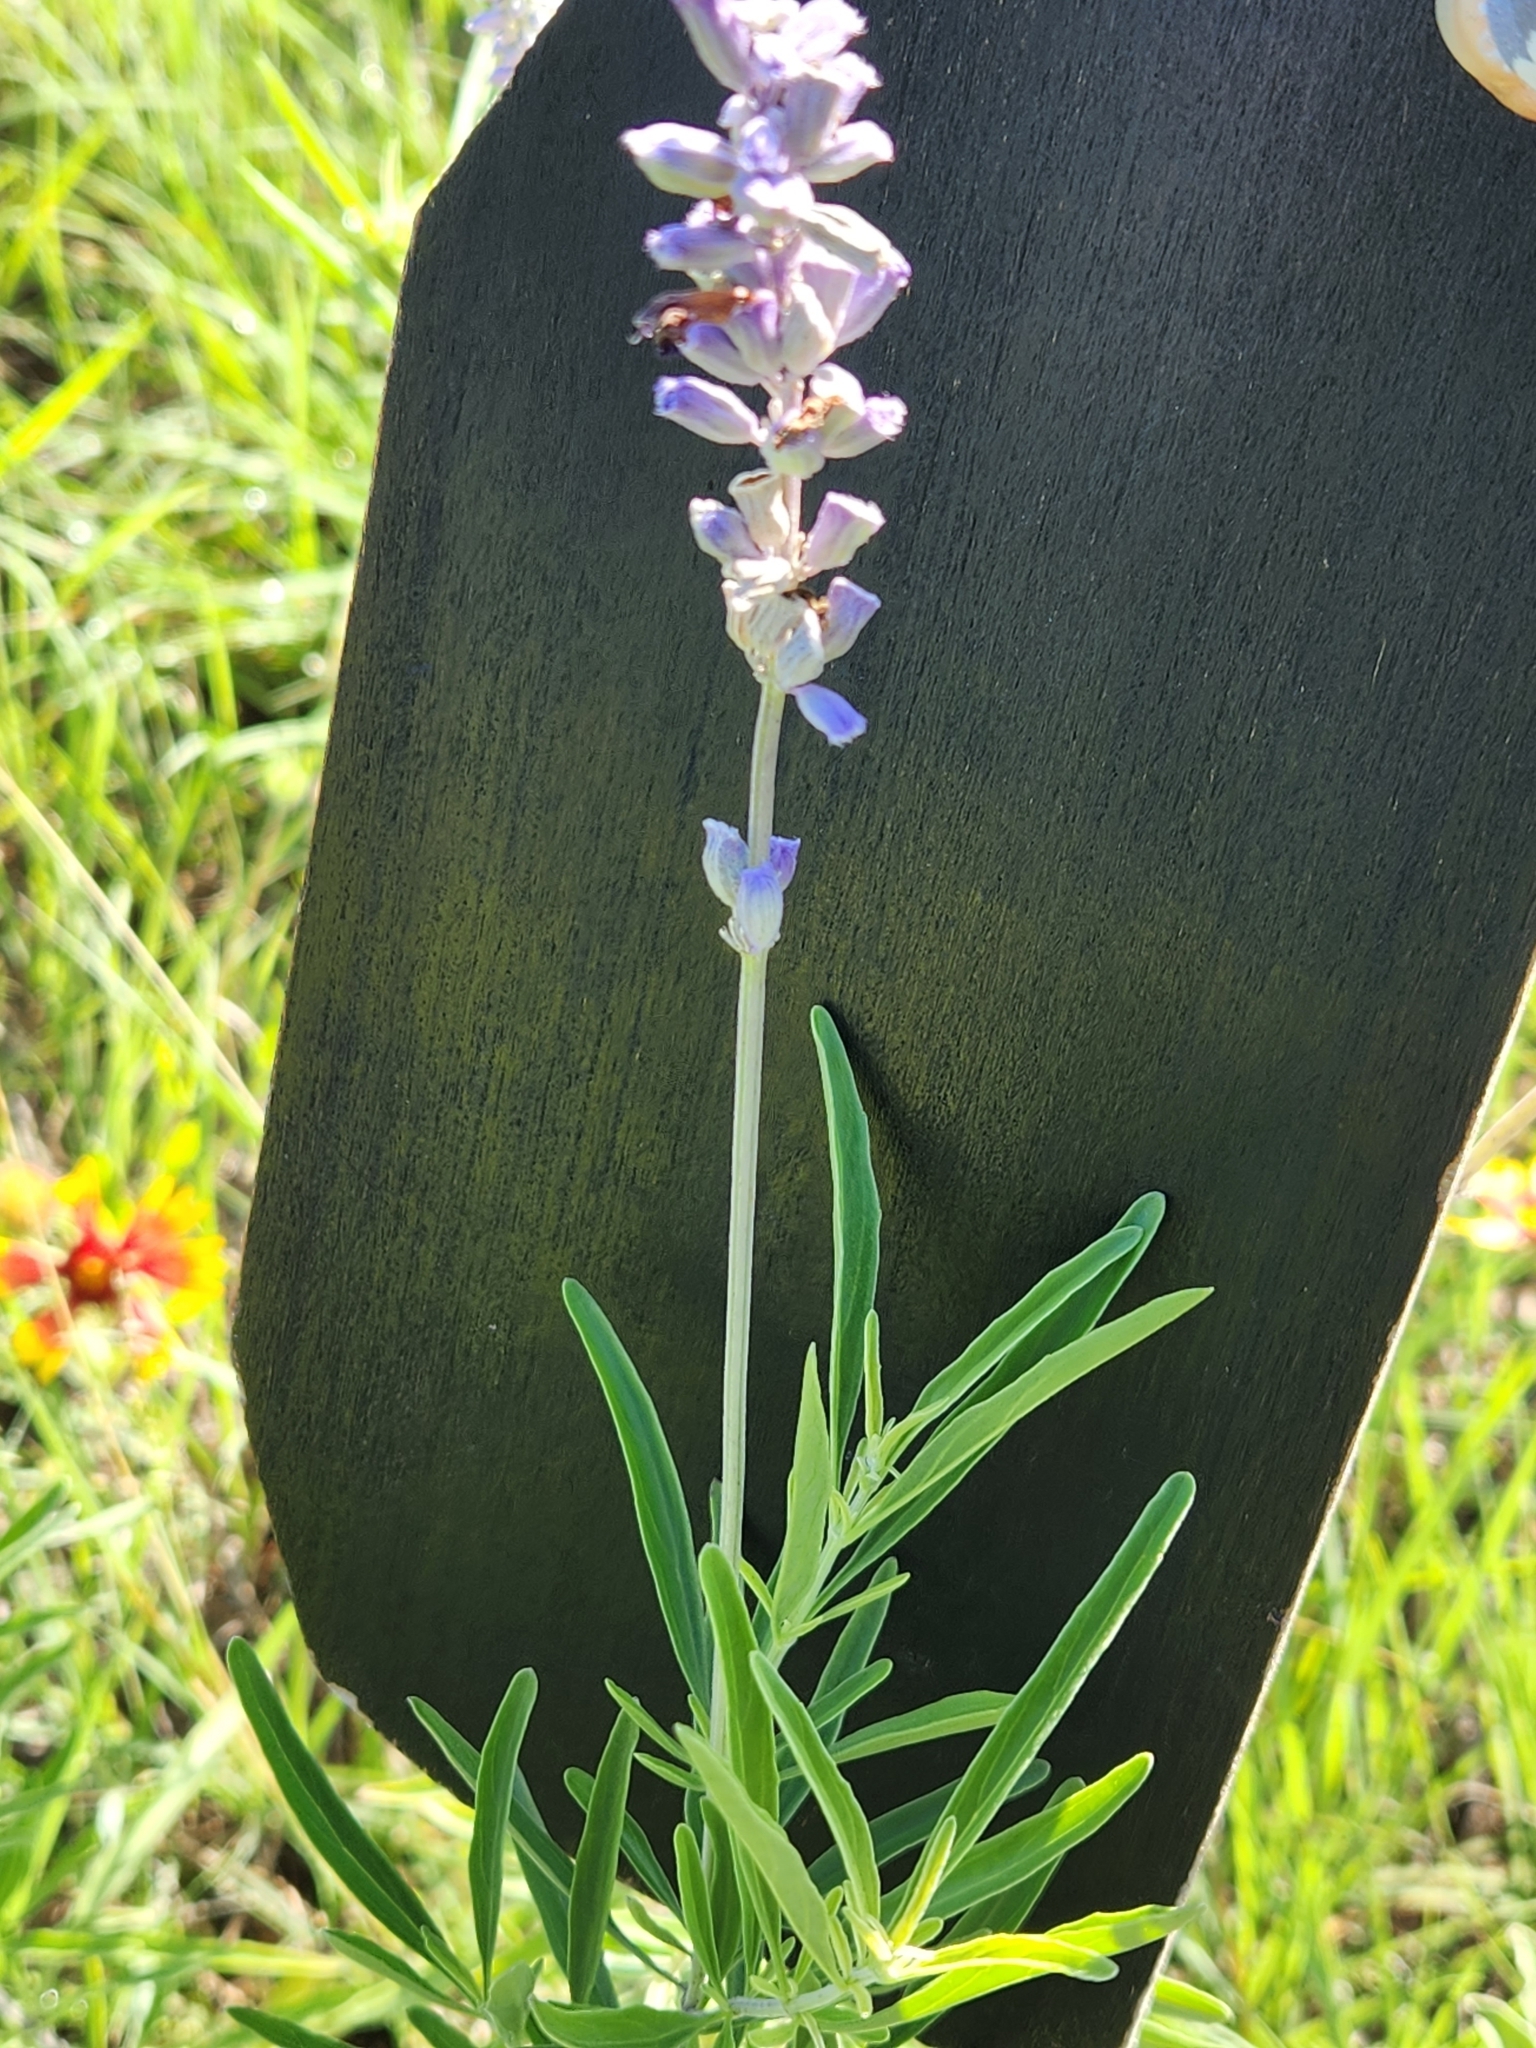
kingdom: Plantae
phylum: Tracheophyta
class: Magnoliopsida
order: Lamiales
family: Lamiaceae
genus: Salvia
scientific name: Salvia farinacea
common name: Mealy sage
